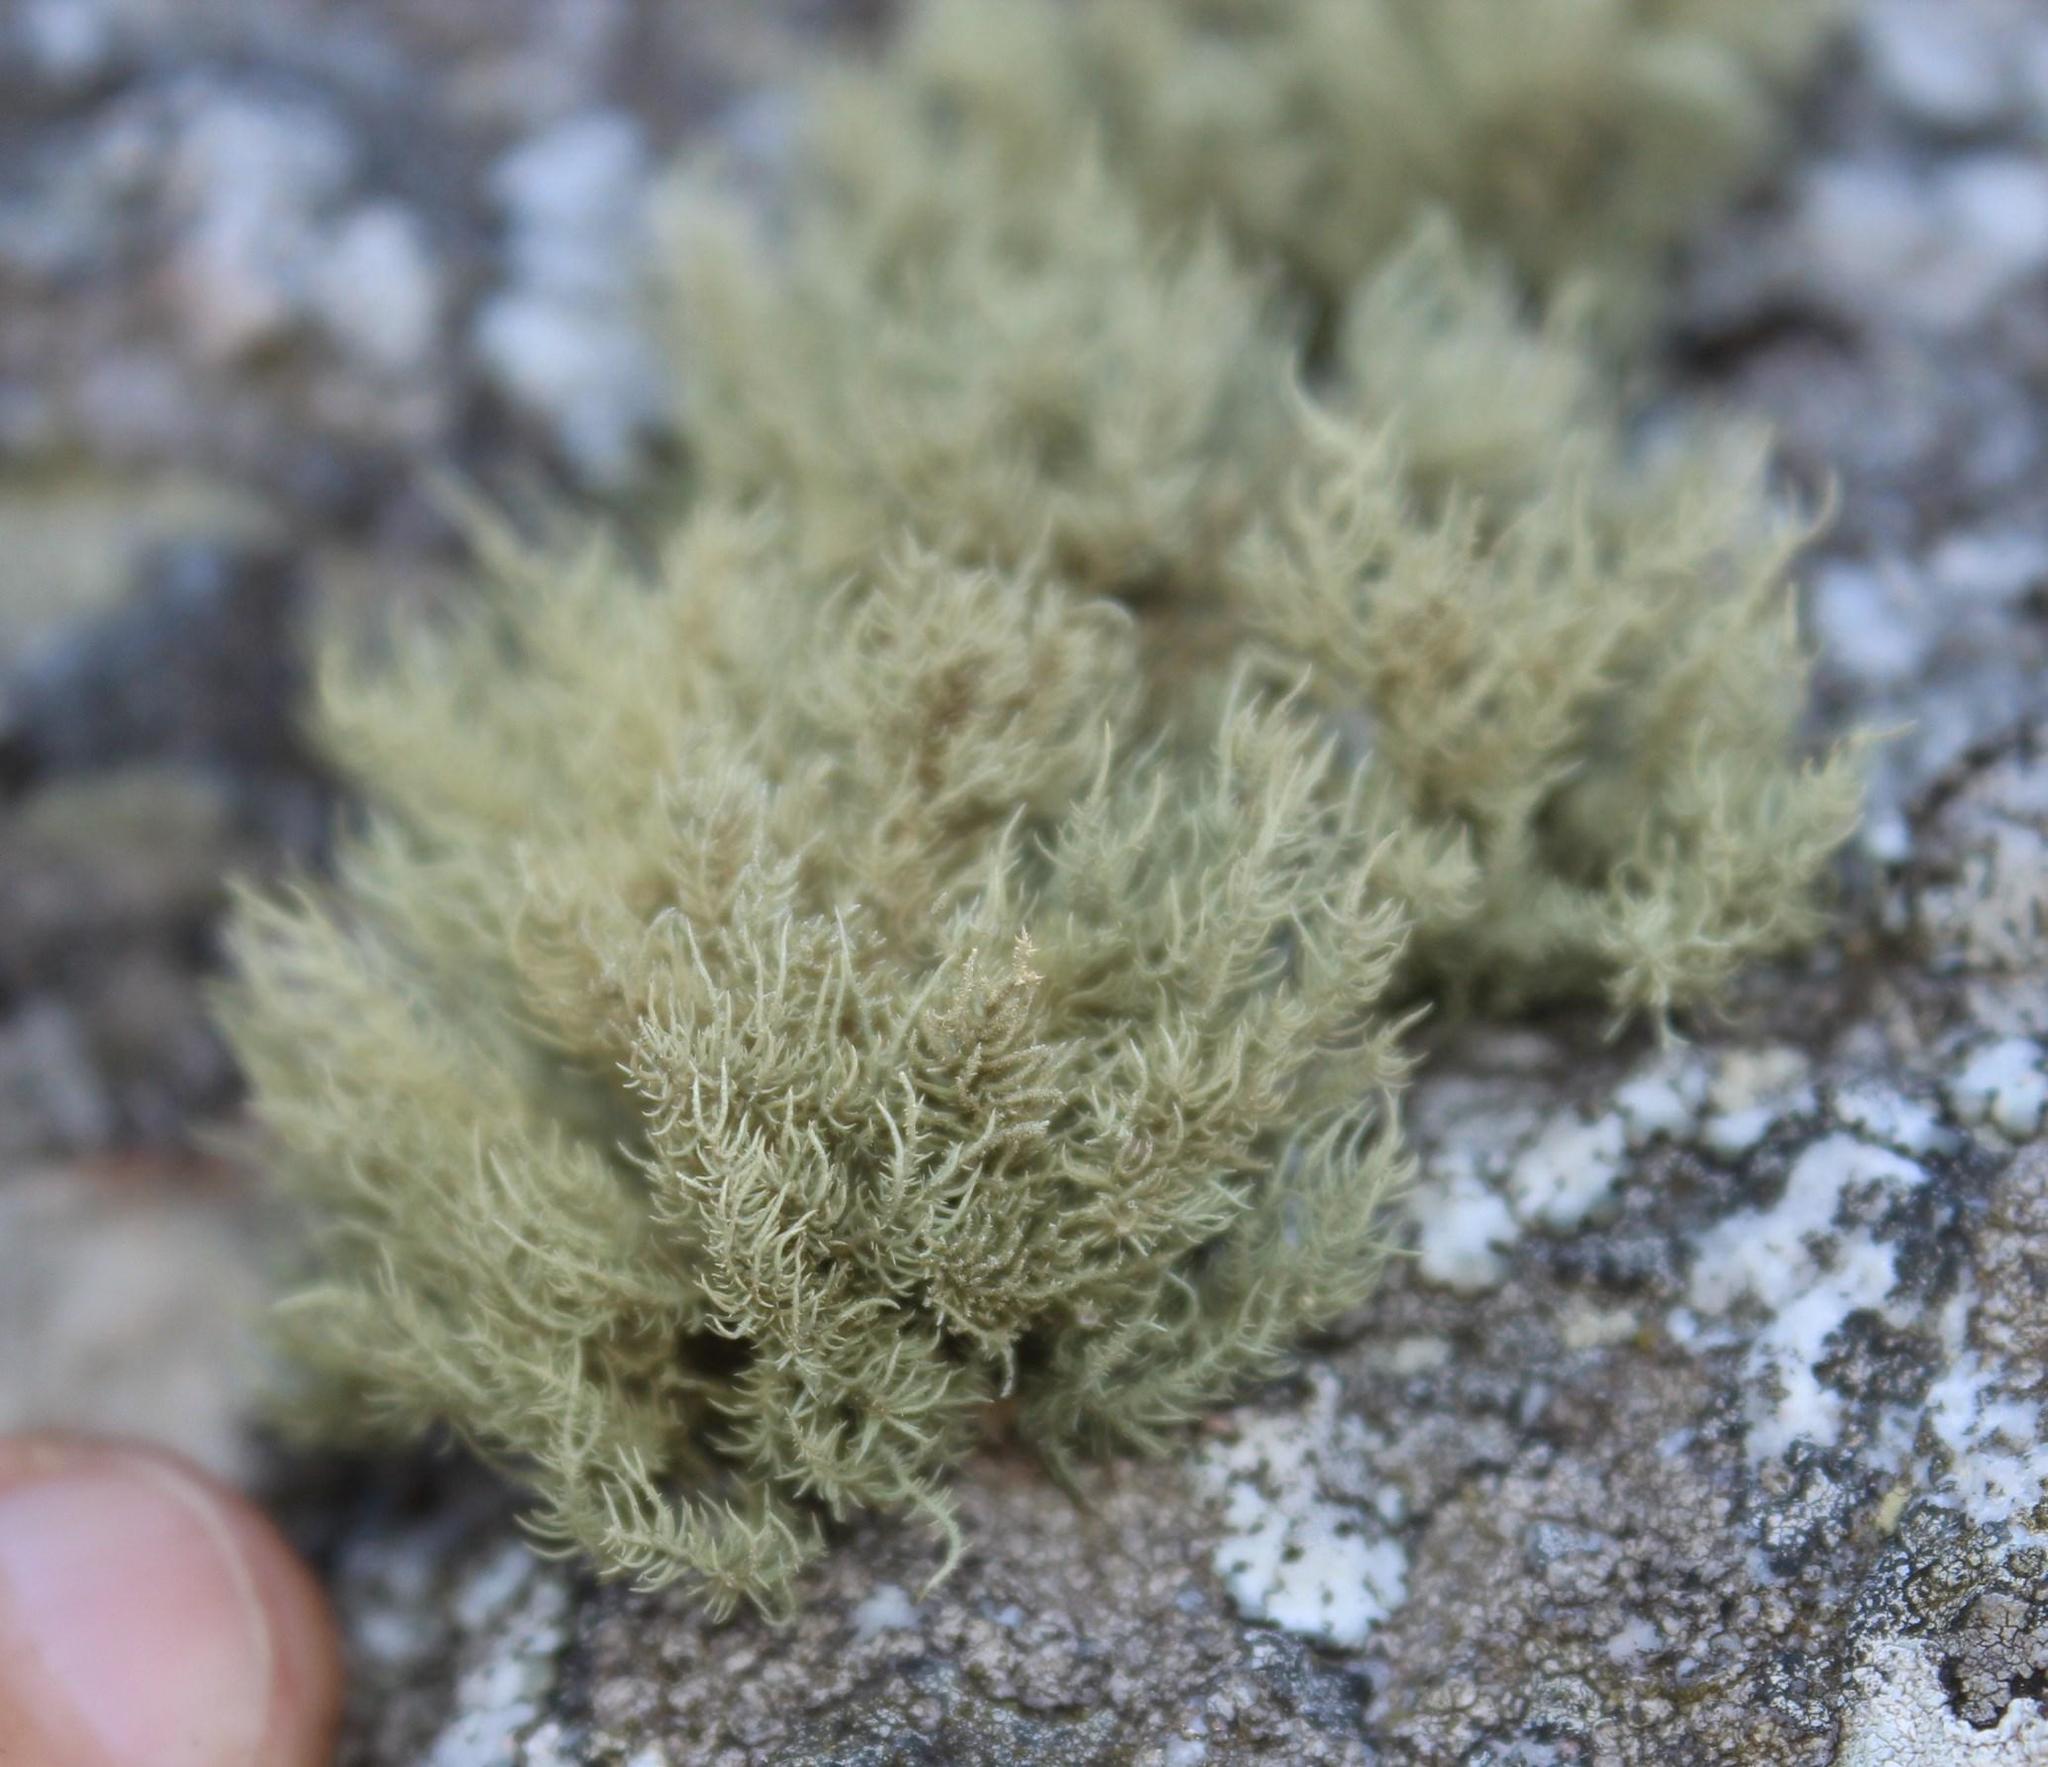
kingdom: Fungi
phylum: Ascomycota
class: Lecanoromycetes
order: Lecanorales
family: Parmeliaceae
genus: Usnea
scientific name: Usnea pulvinata
